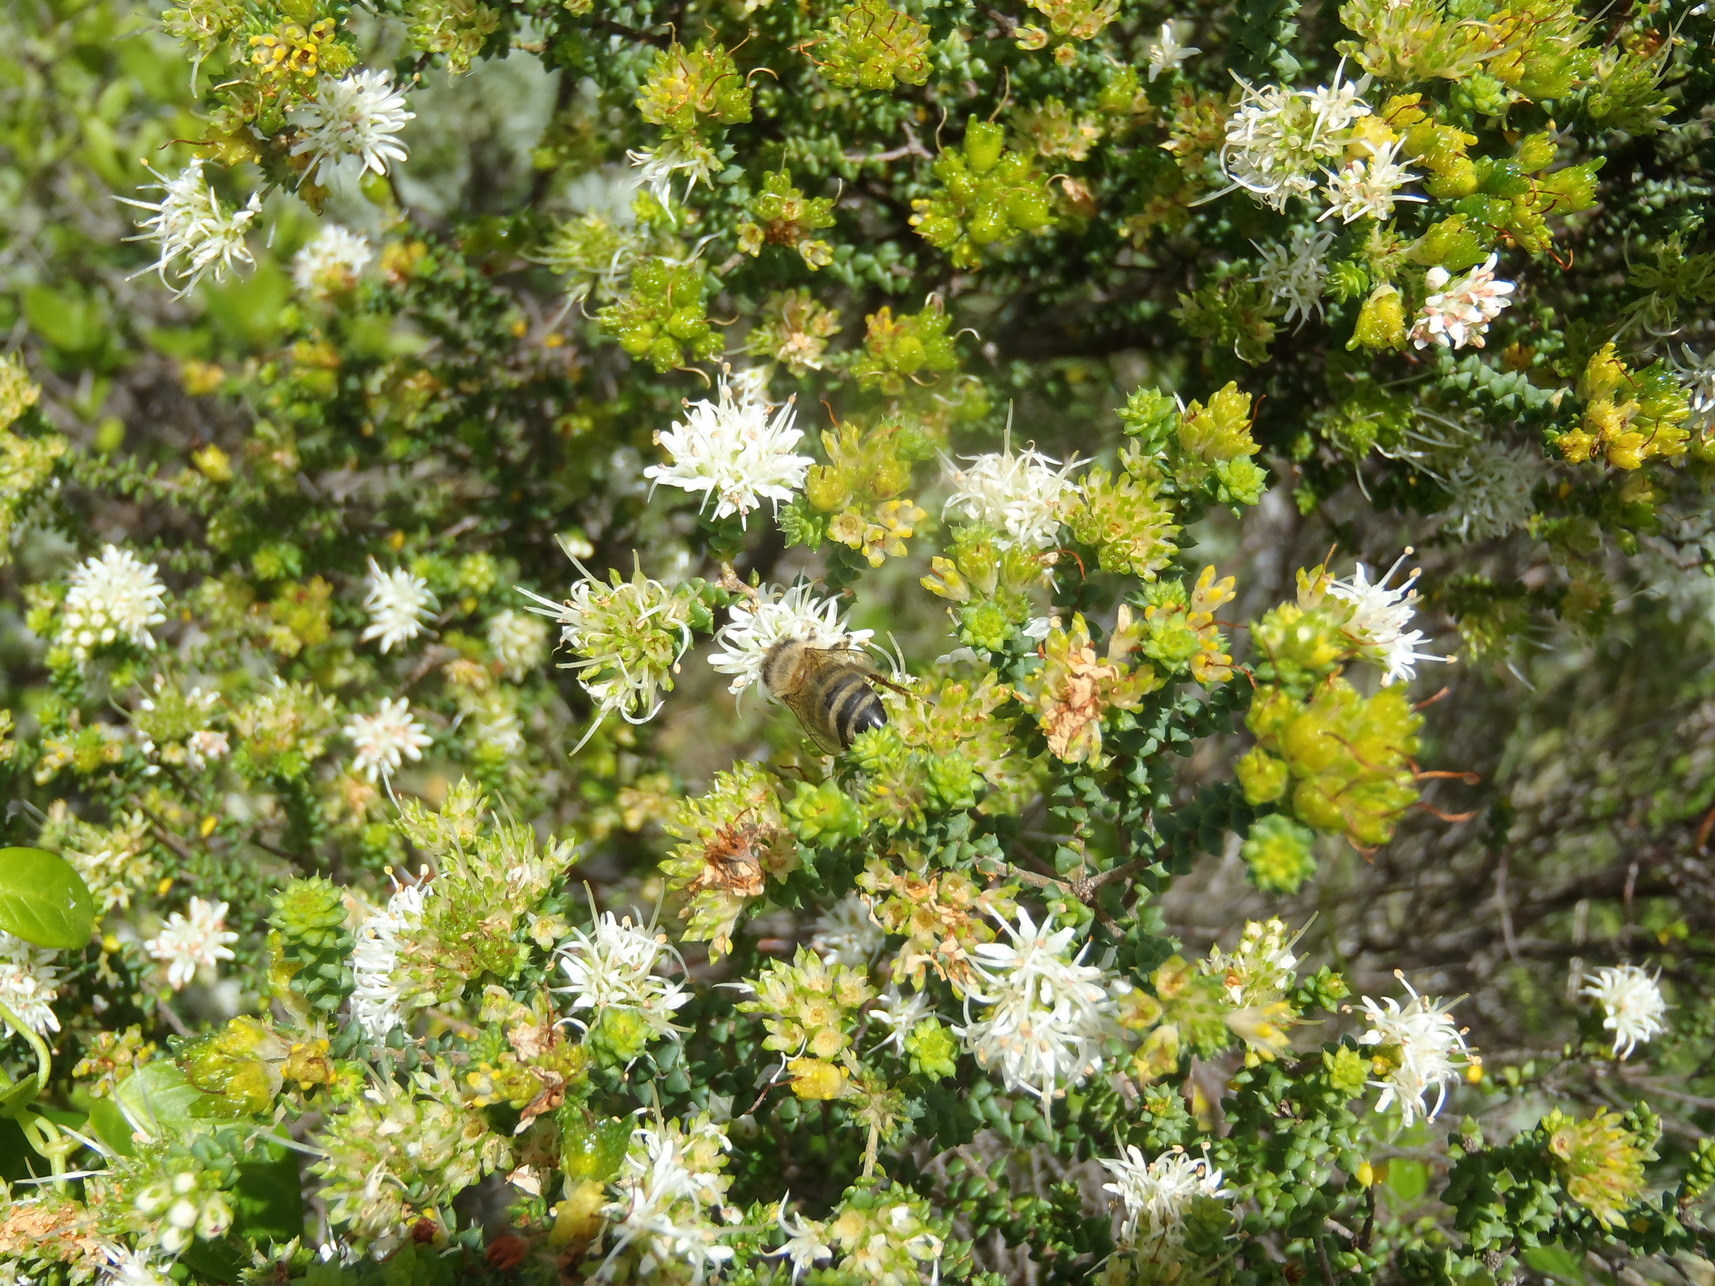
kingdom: Plantae
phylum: Tracheophyta
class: Magnoliopsida
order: Sapindales
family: Rutaceae
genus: Agathosma
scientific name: Agathosma apiculata
